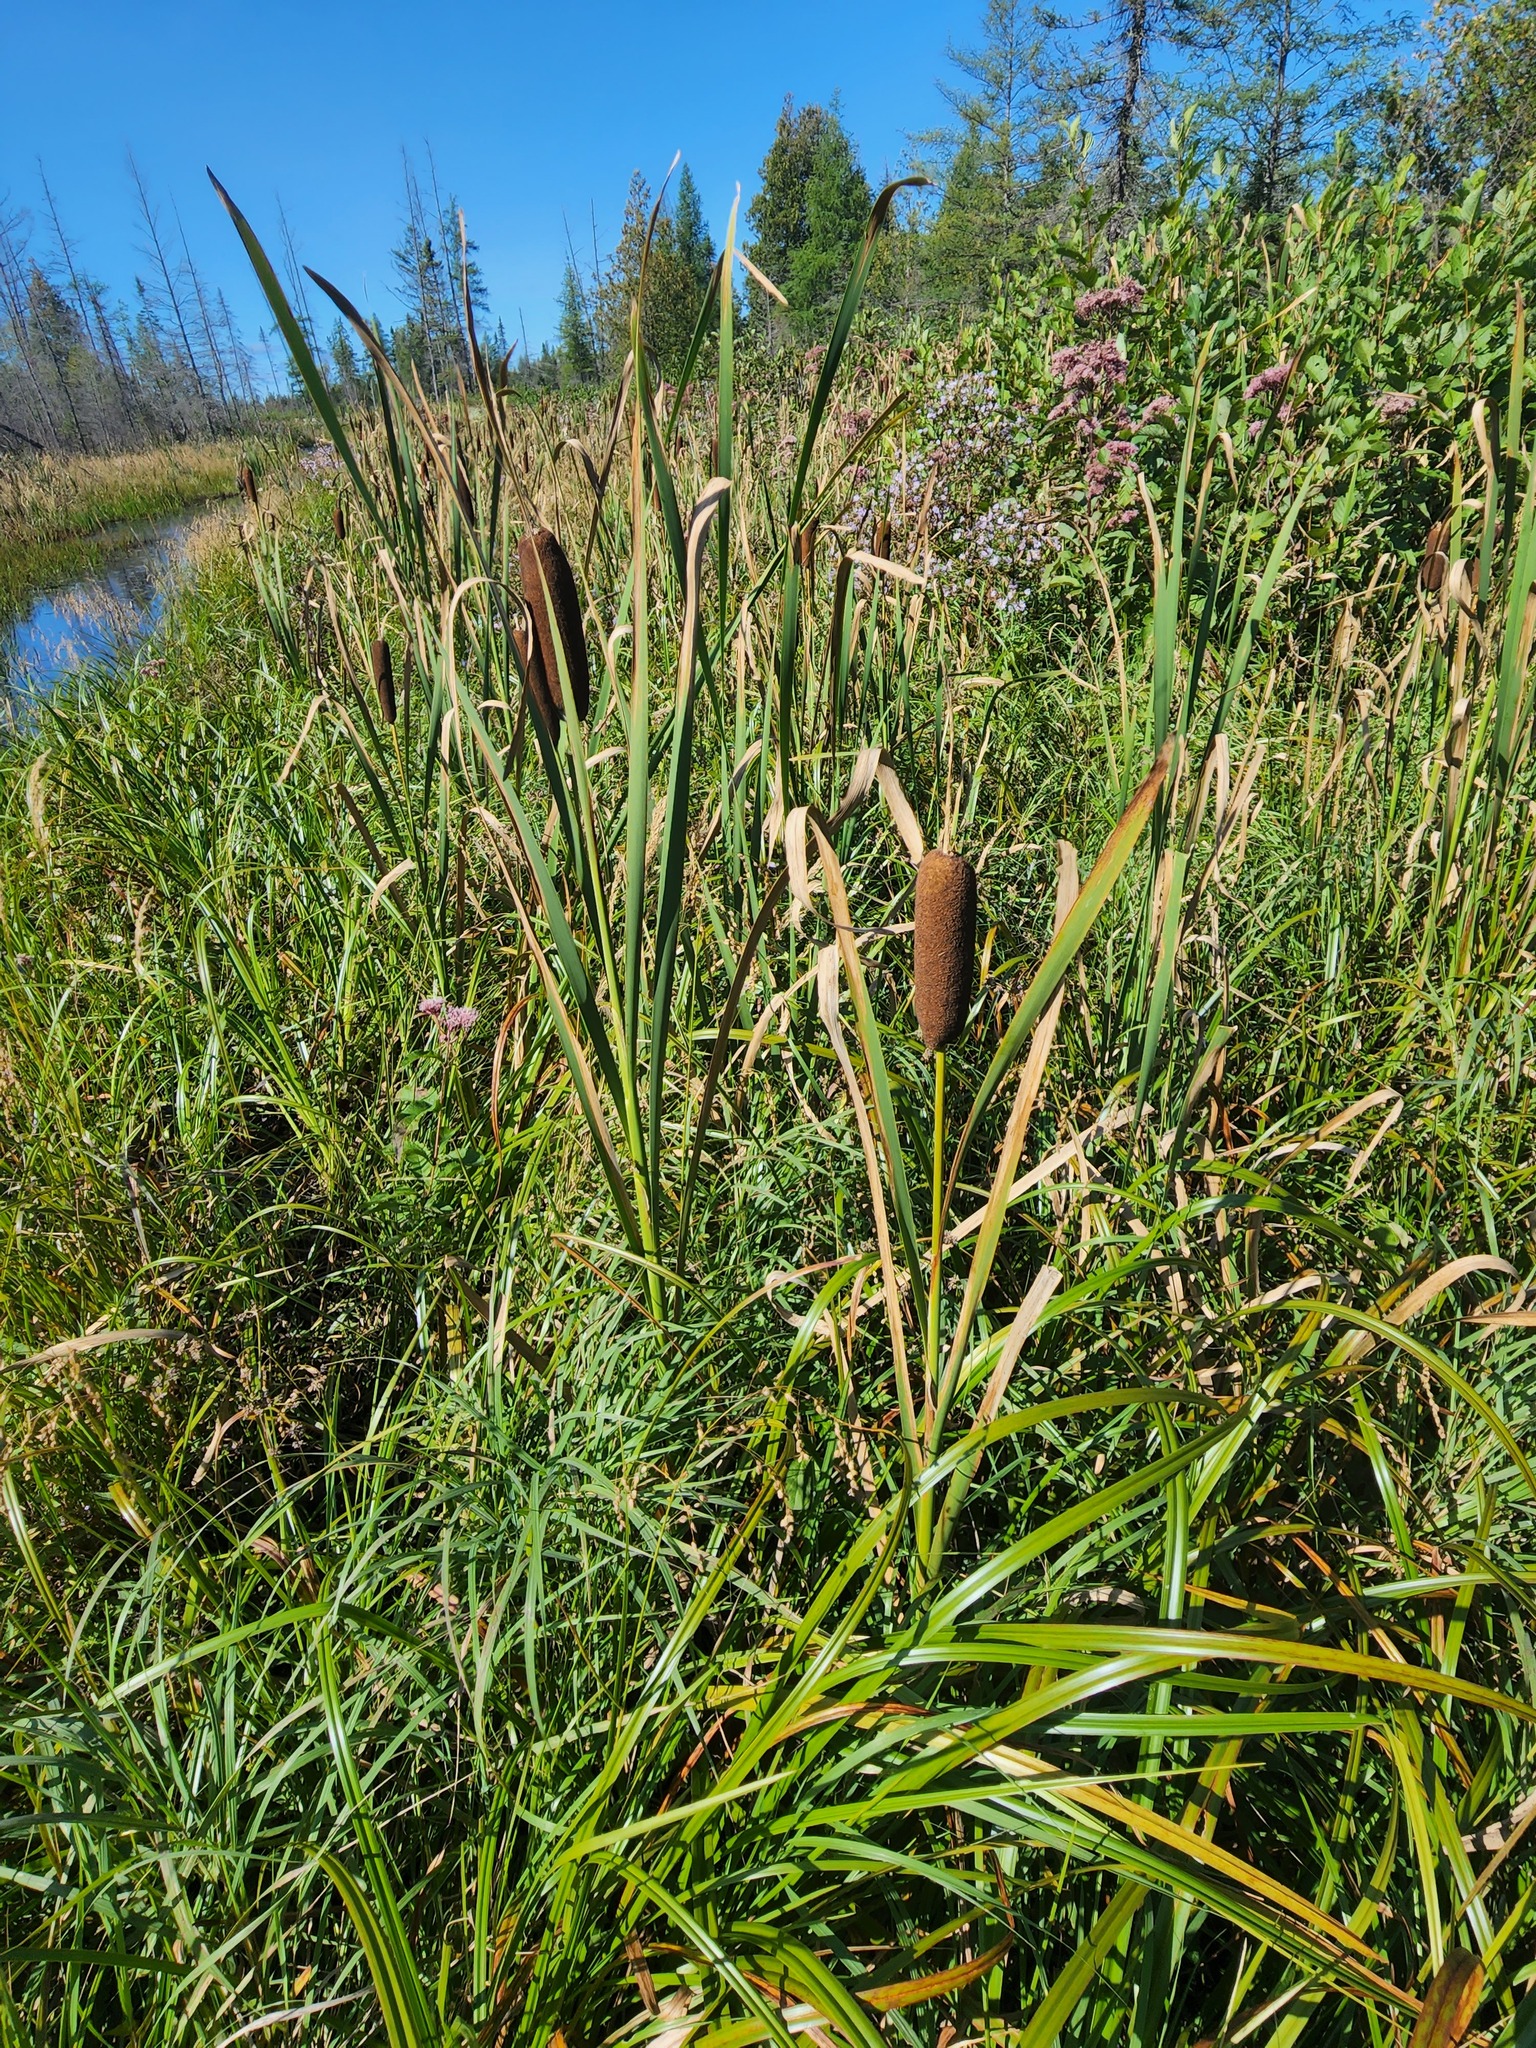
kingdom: Plantae
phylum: Tracheophyta
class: Liliopsida
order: Poales
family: Typhaceae
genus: Typha
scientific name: Typha latifolia
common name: Broadleaf cattail
